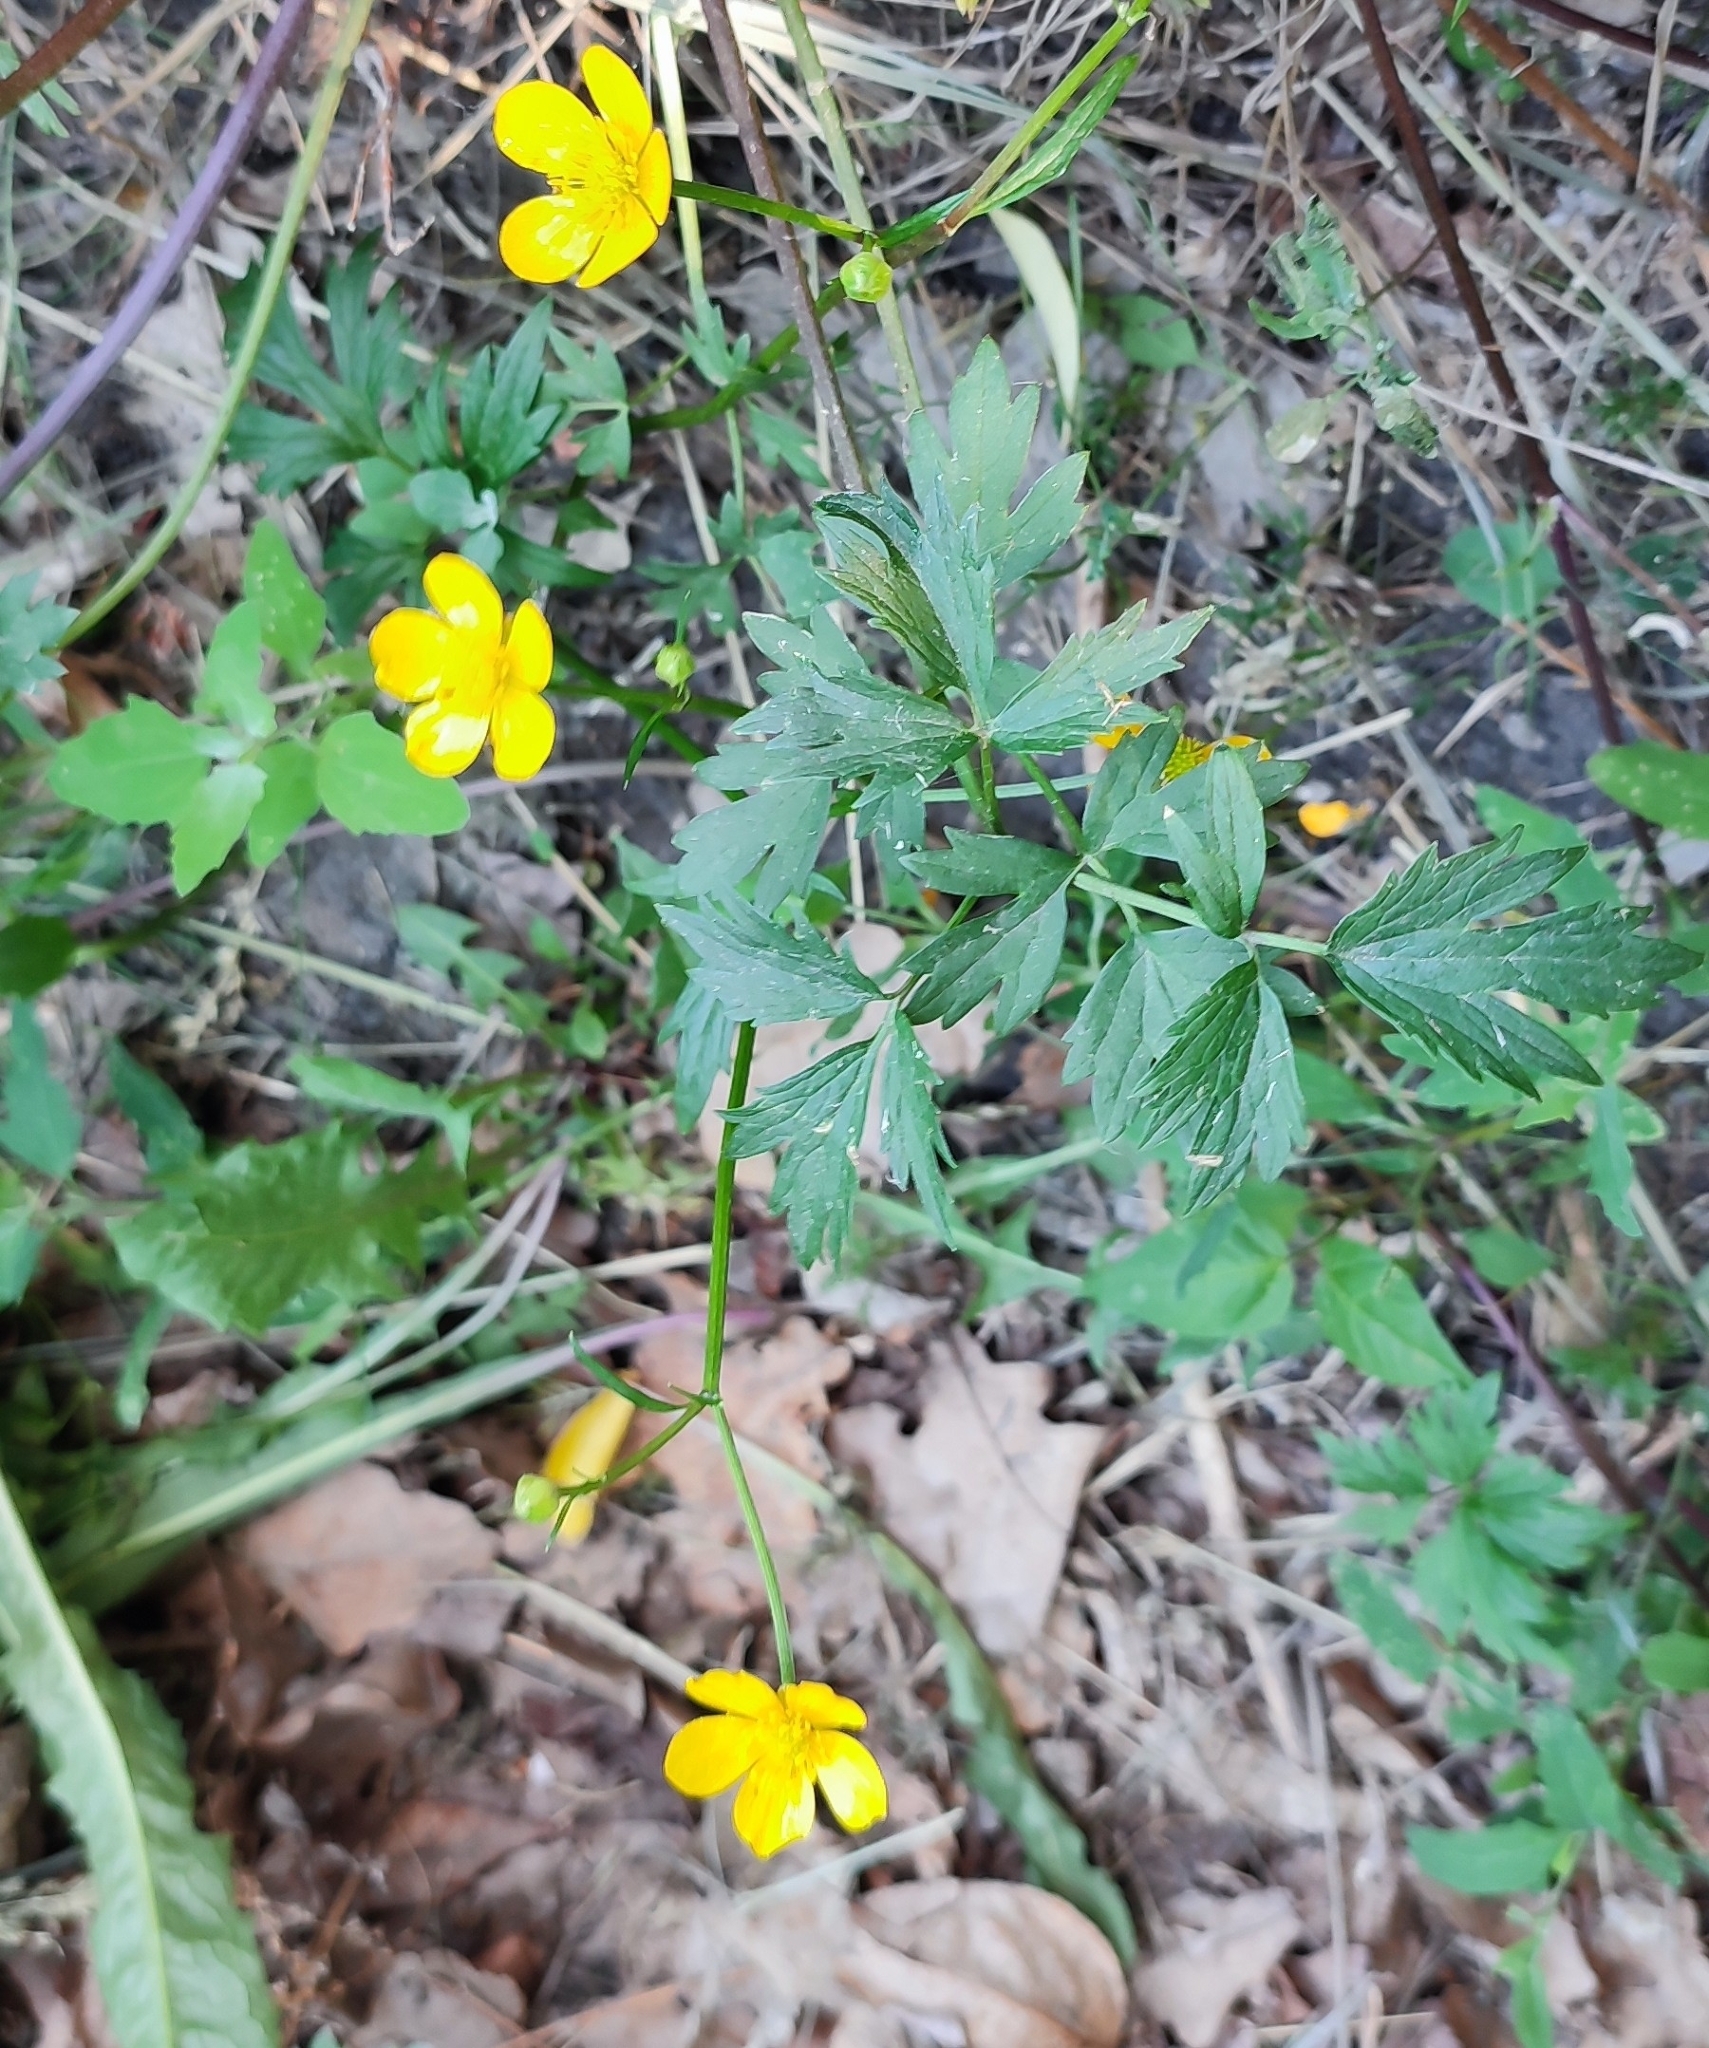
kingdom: Plantae
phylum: Tracheophyta
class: Magnoliopsida
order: Ranunculales
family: Ranunculaceae
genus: Ranunculus
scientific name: Ranunculus repens
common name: Creeping buttercup
